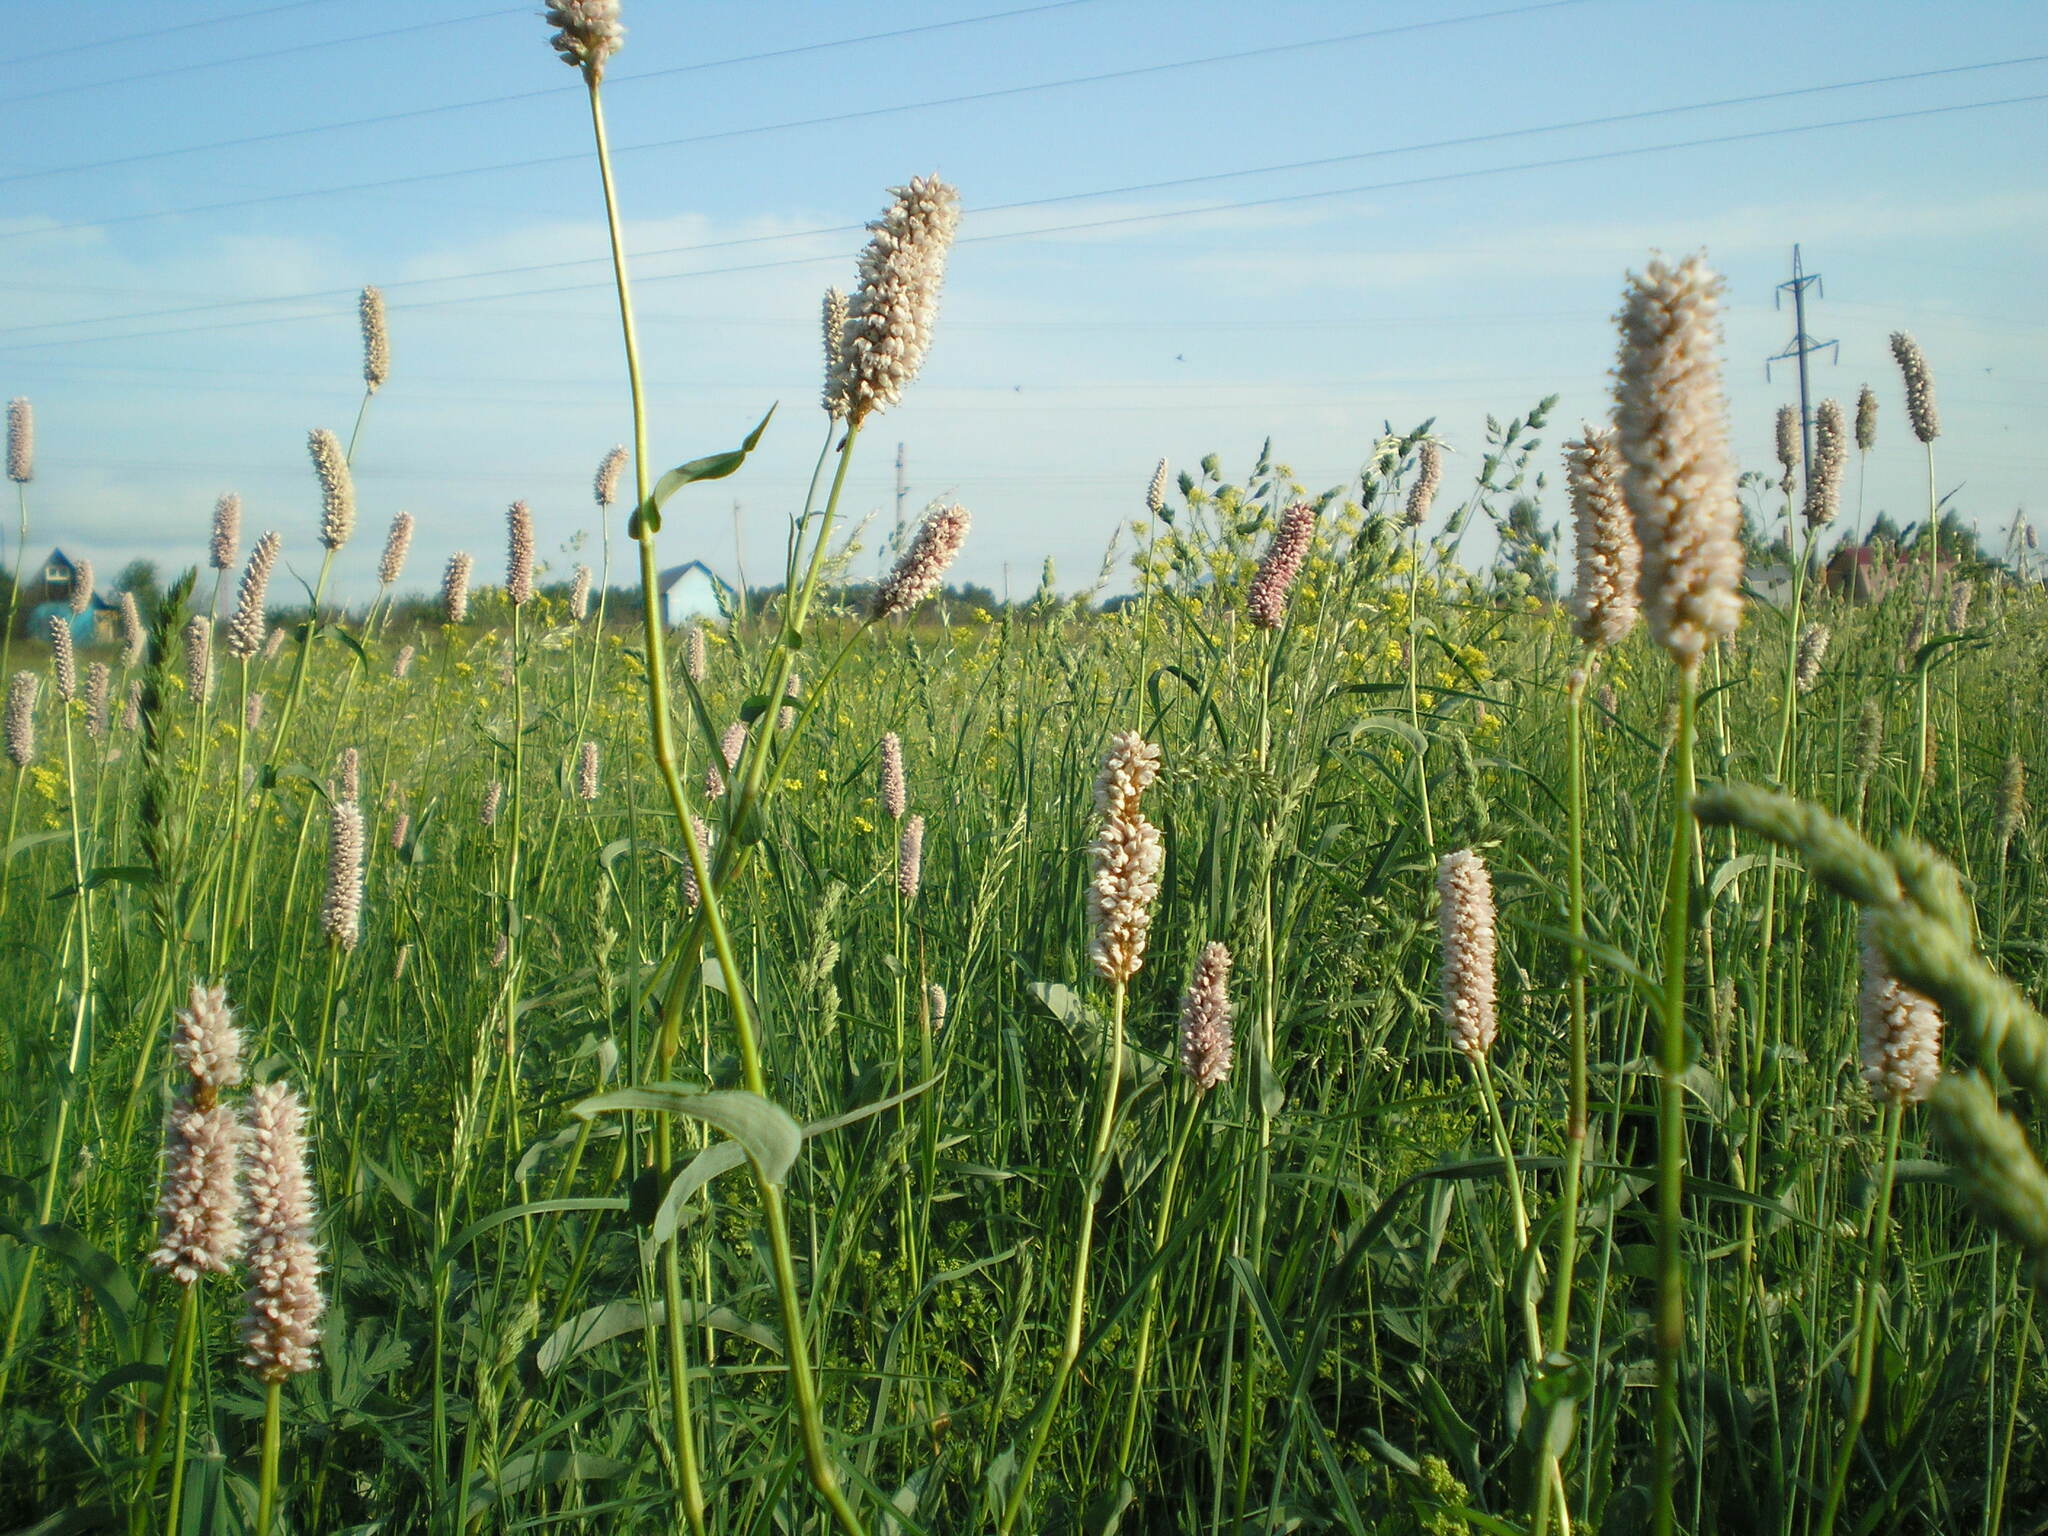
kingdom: Plantae
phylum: Tracheophyta
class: Magnoliopsida
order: Caryophyllales
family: Polygonaceae
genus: Bistorta
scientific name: Bistorta officinalis
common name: Common bistort
